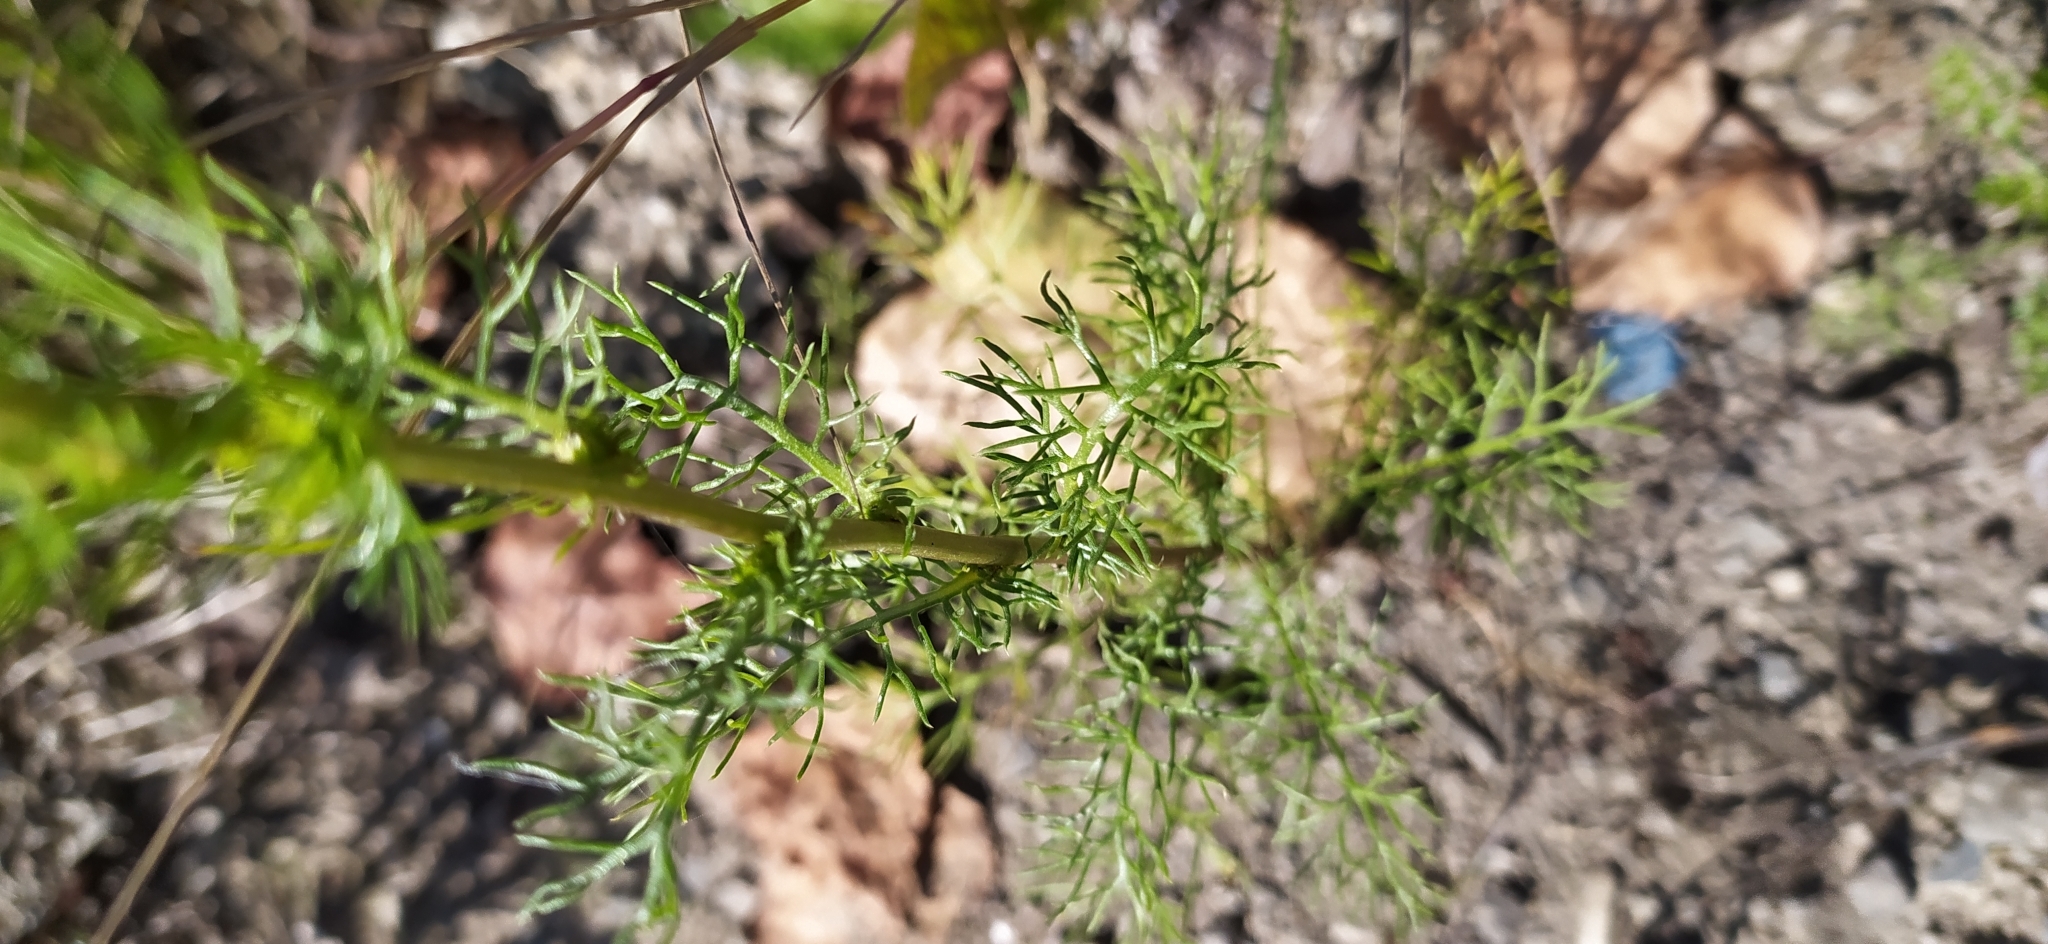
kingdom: Plantae
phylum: Tracheophyta
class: Magnoliopsida
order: Asterales
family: Asteraceae
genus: Tripleurospermum
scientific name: Tripleurospermum inodorum
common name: Scentless mayweed
